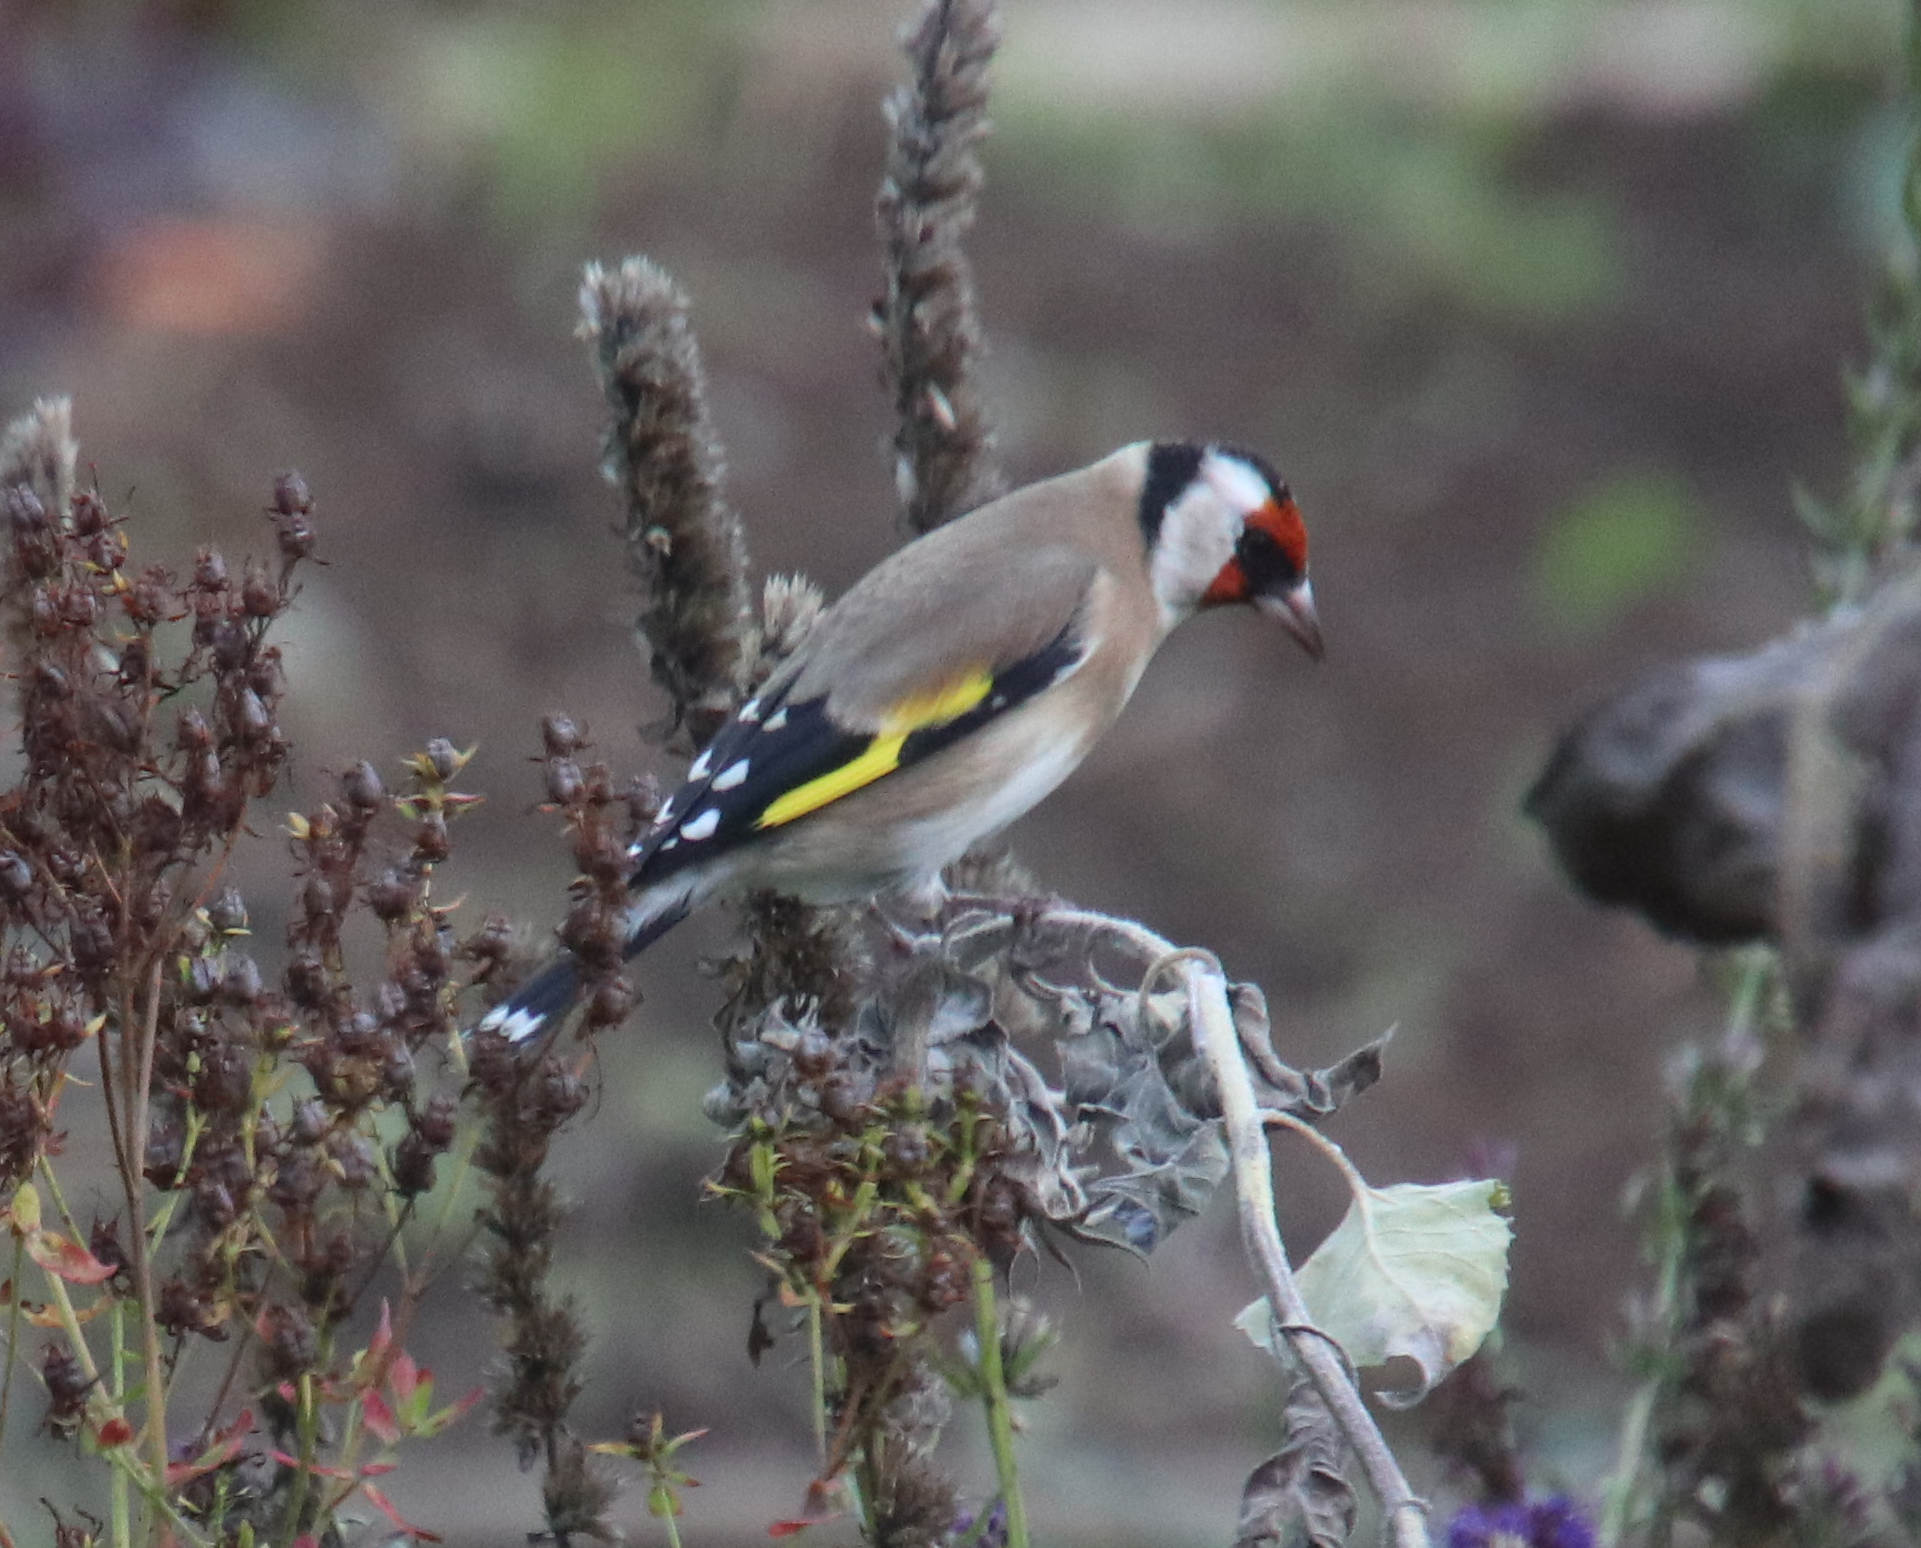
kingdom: Animalia
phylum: Chordata
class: Aves
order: Passeriformes
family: Fringillidae
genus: Carduelis
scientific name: Carduelis carduelis
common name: European goldfinch
